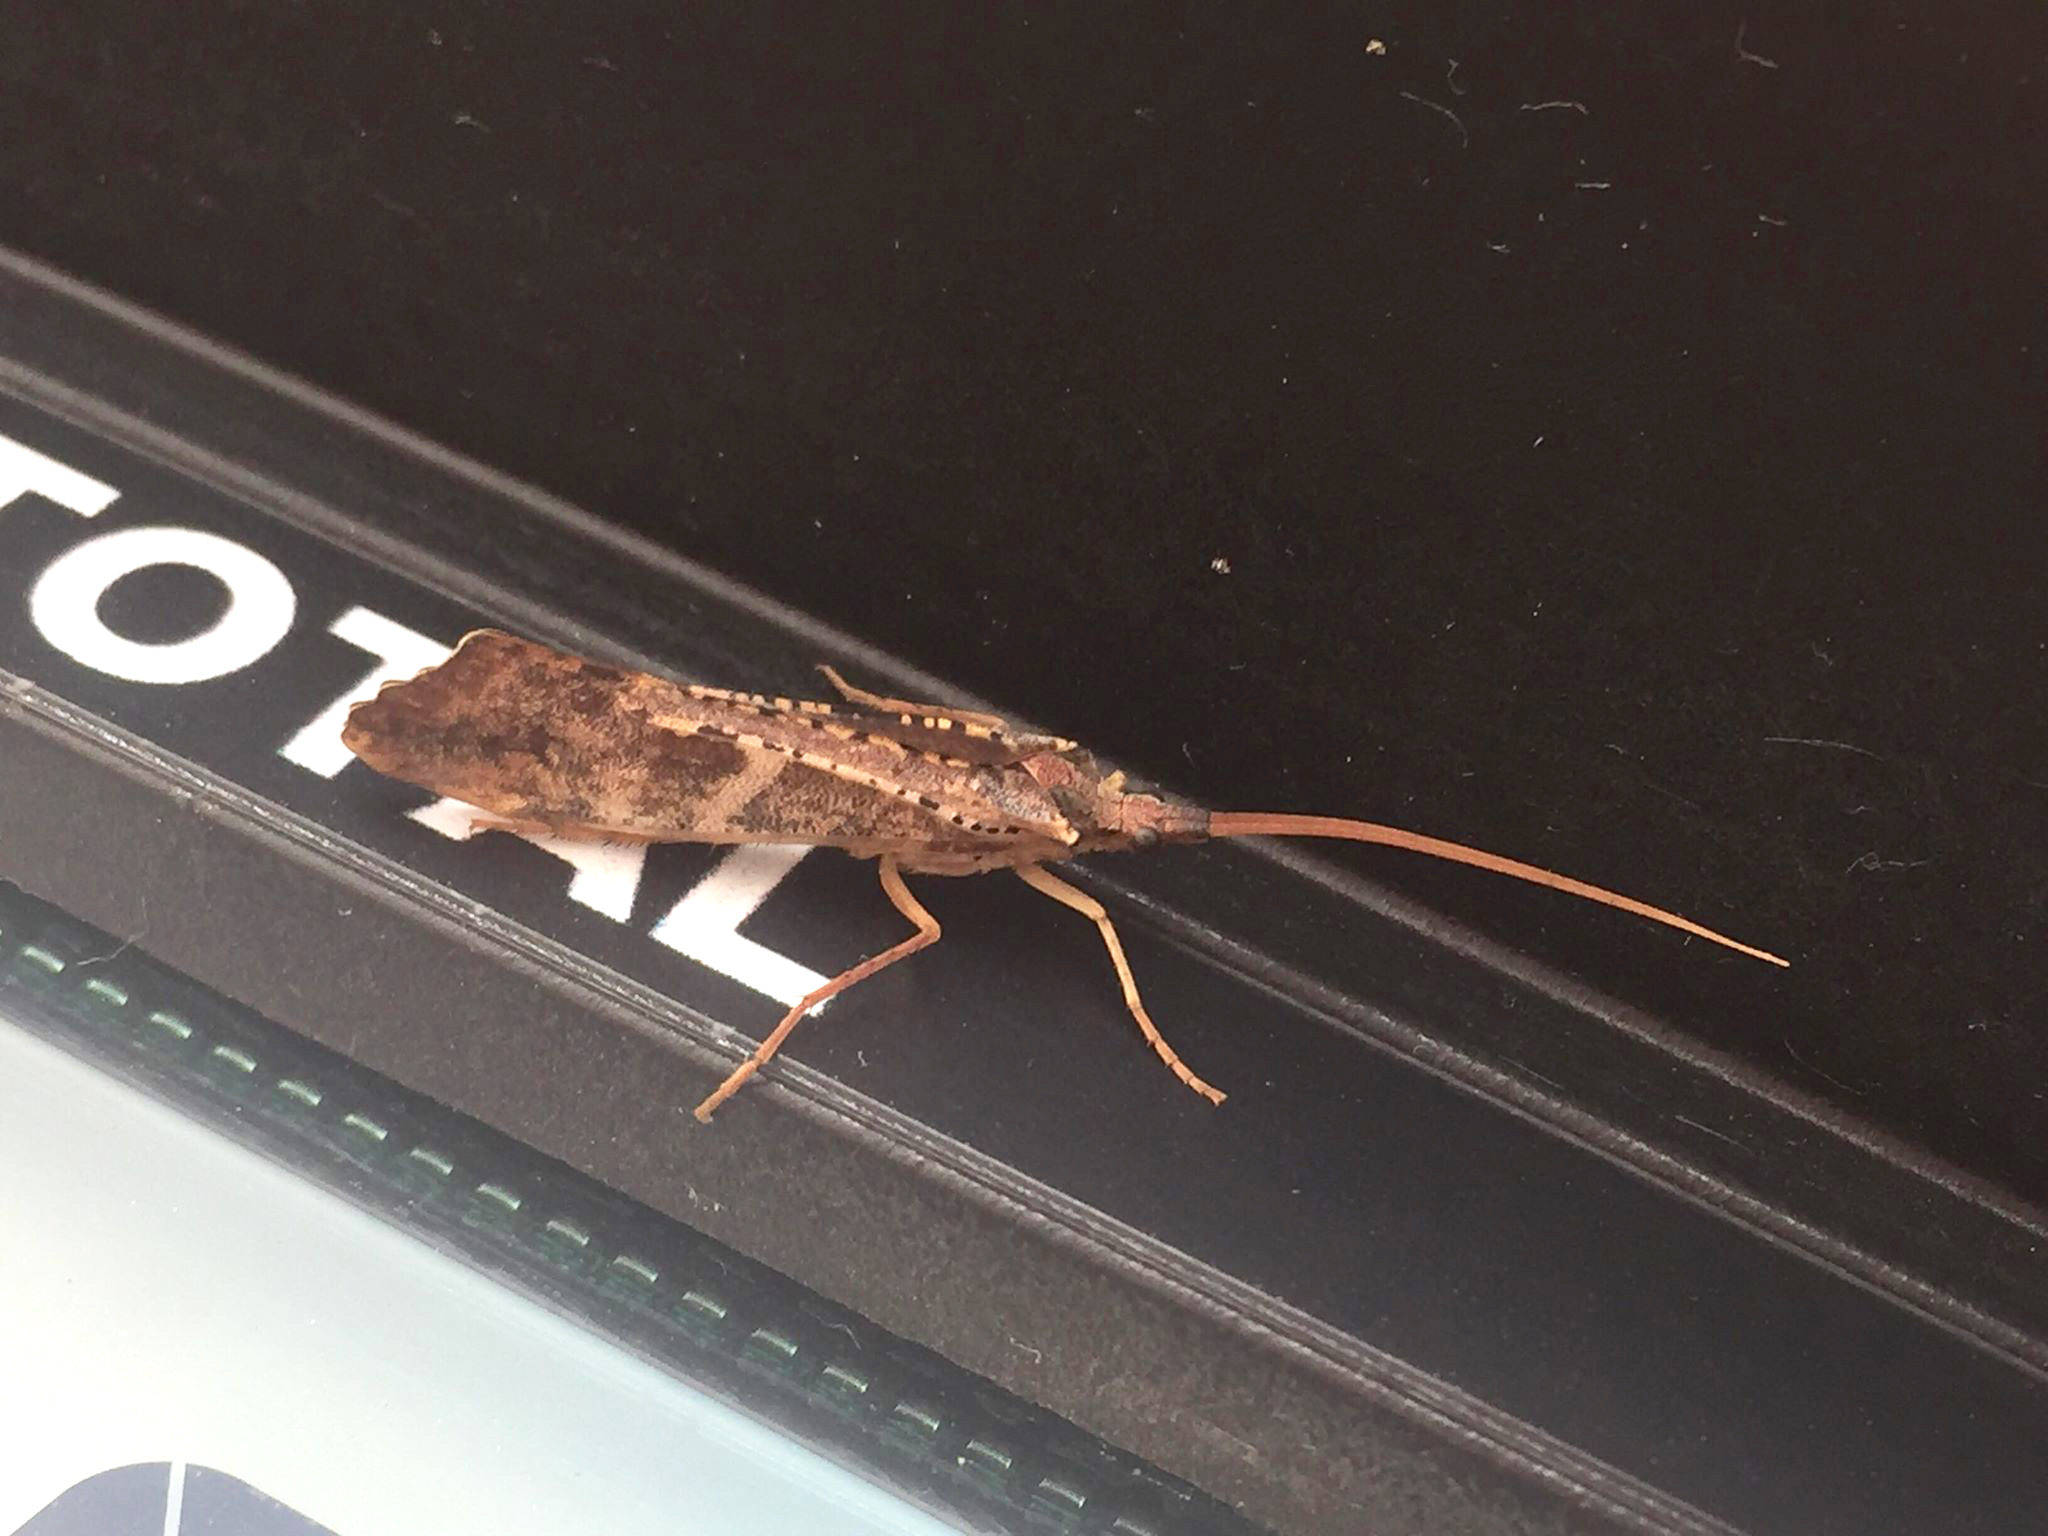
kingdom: Animalia
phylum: Arthropoda
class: Insecta
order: Trichoptera
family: Limnephilidae
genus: Nemotaulius
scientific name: Nemotaulius hostilis
